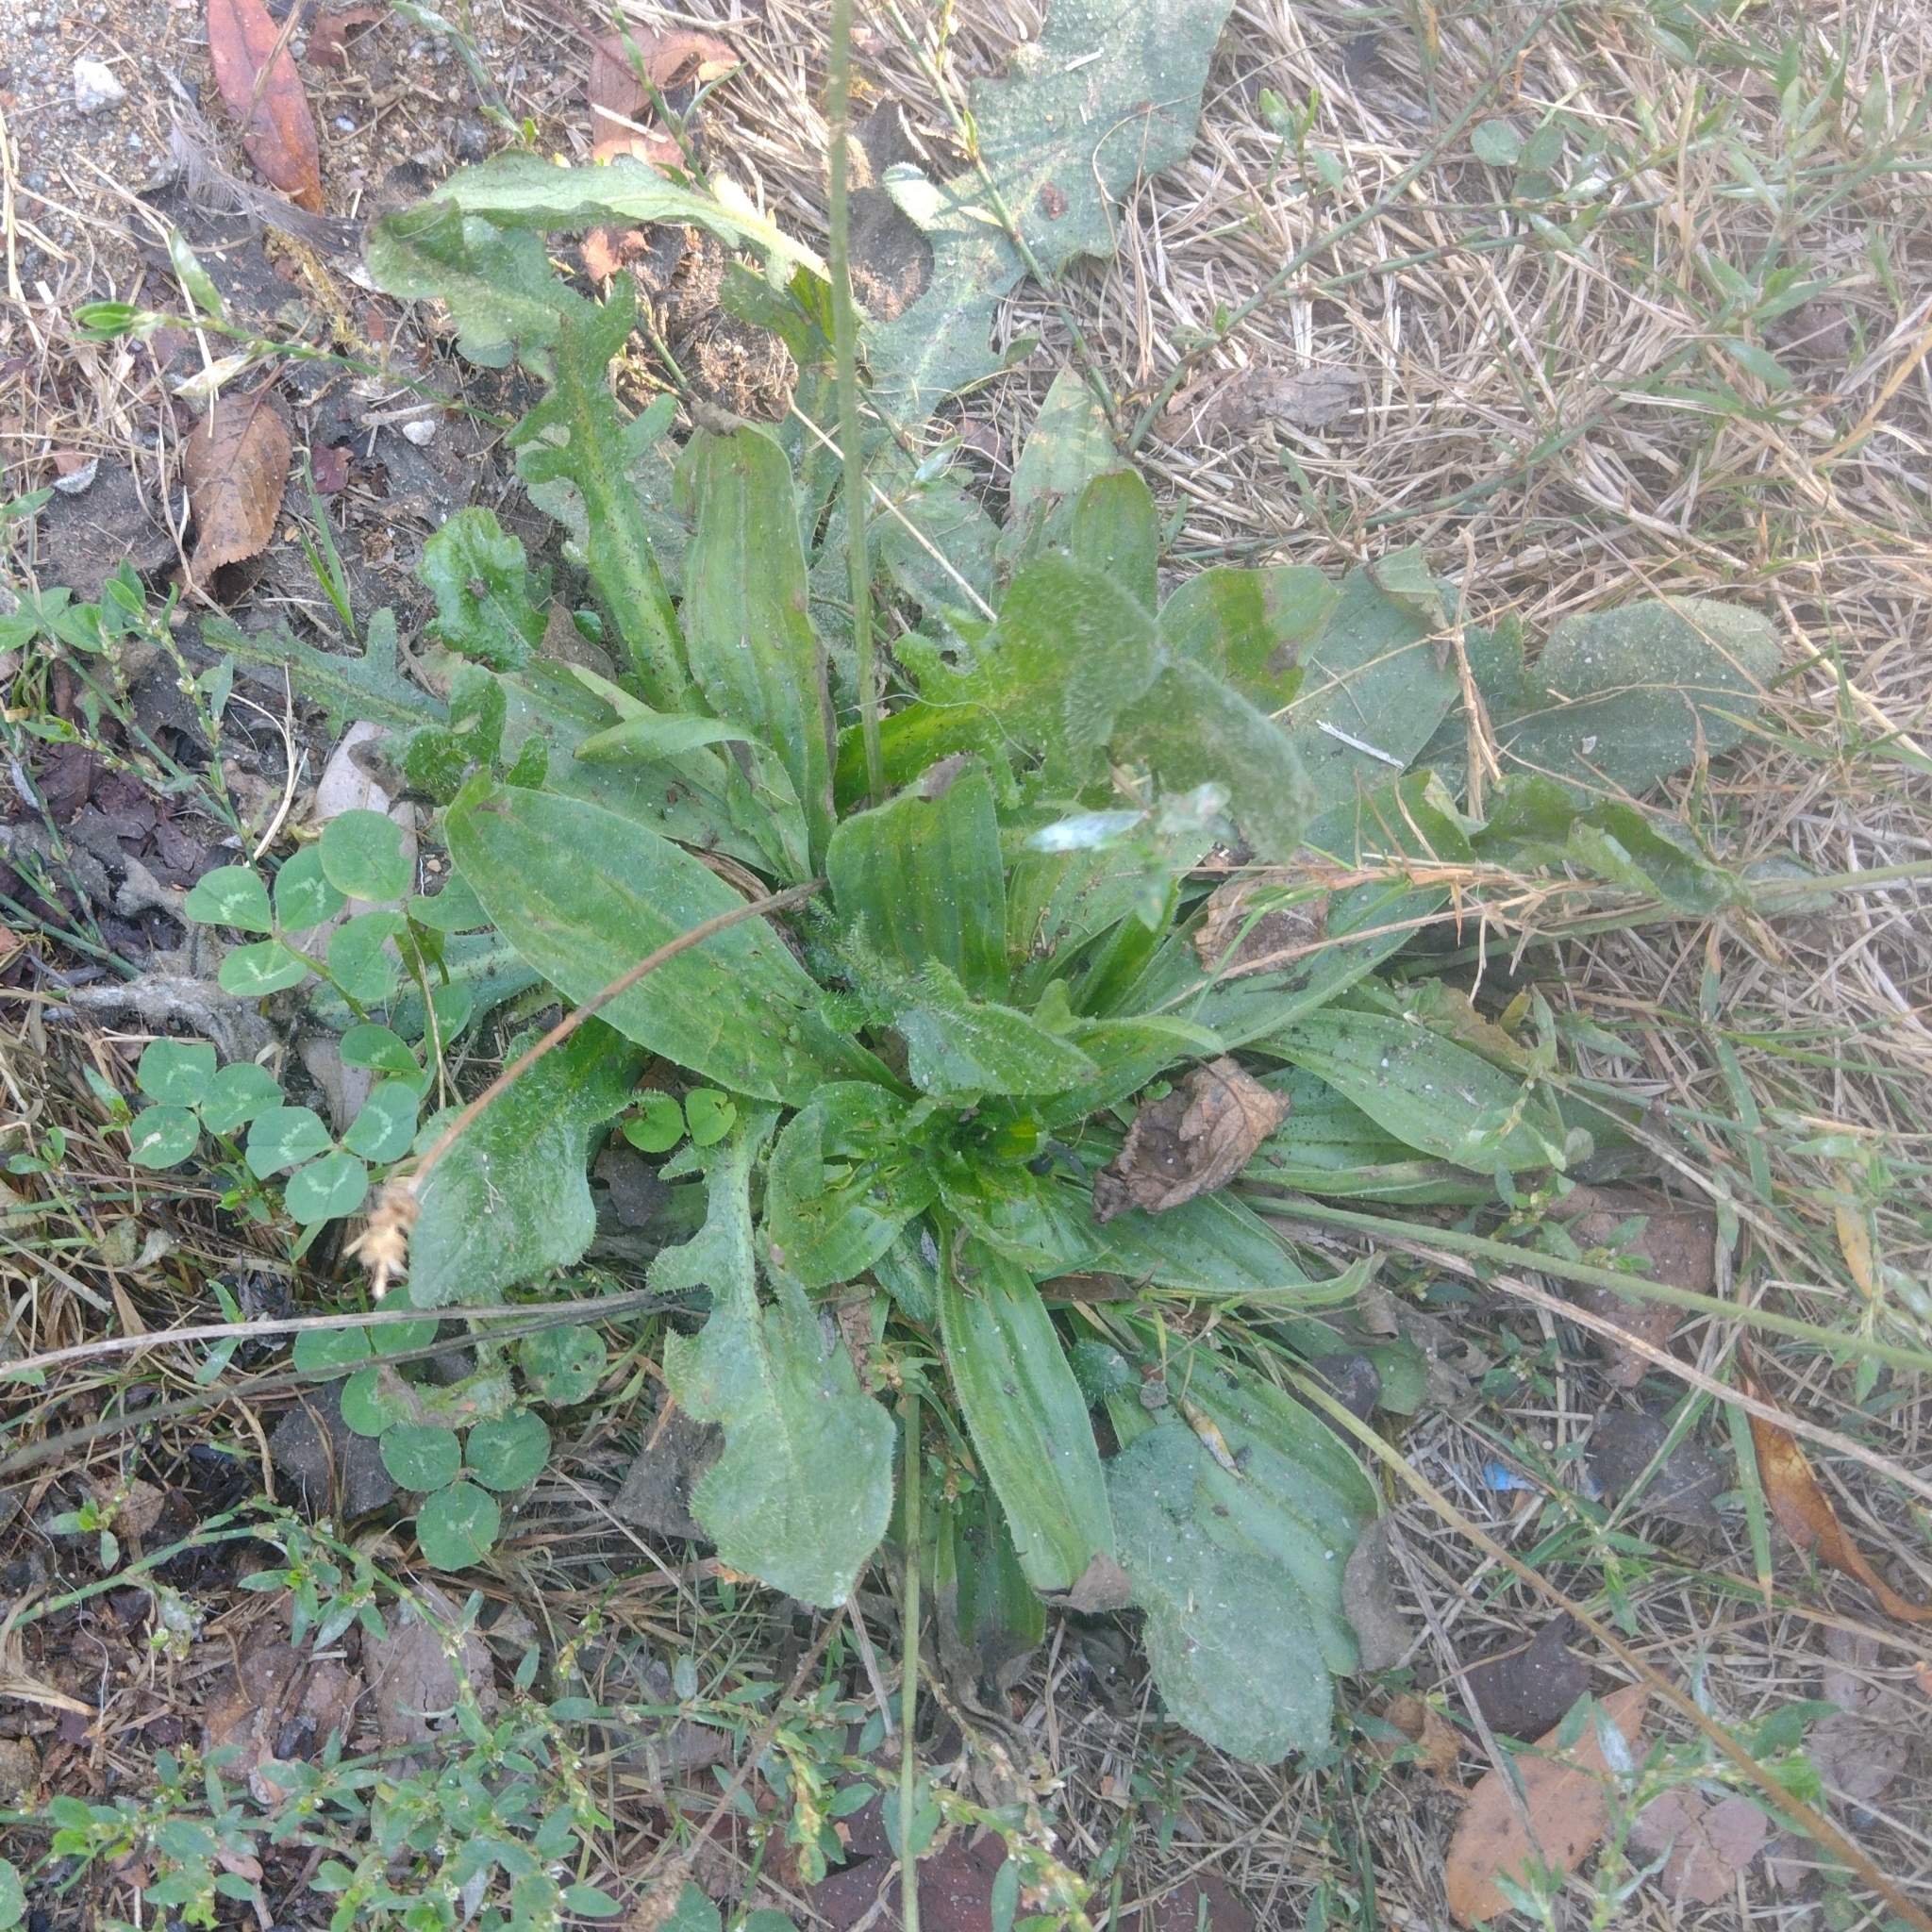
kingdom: Plantae
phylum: Tracheophyta
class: Magnoliopsida
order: Asterales
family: Asteraceae
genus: Hypochaeris
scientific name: Hypochaeris radicata
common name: Flatweed
